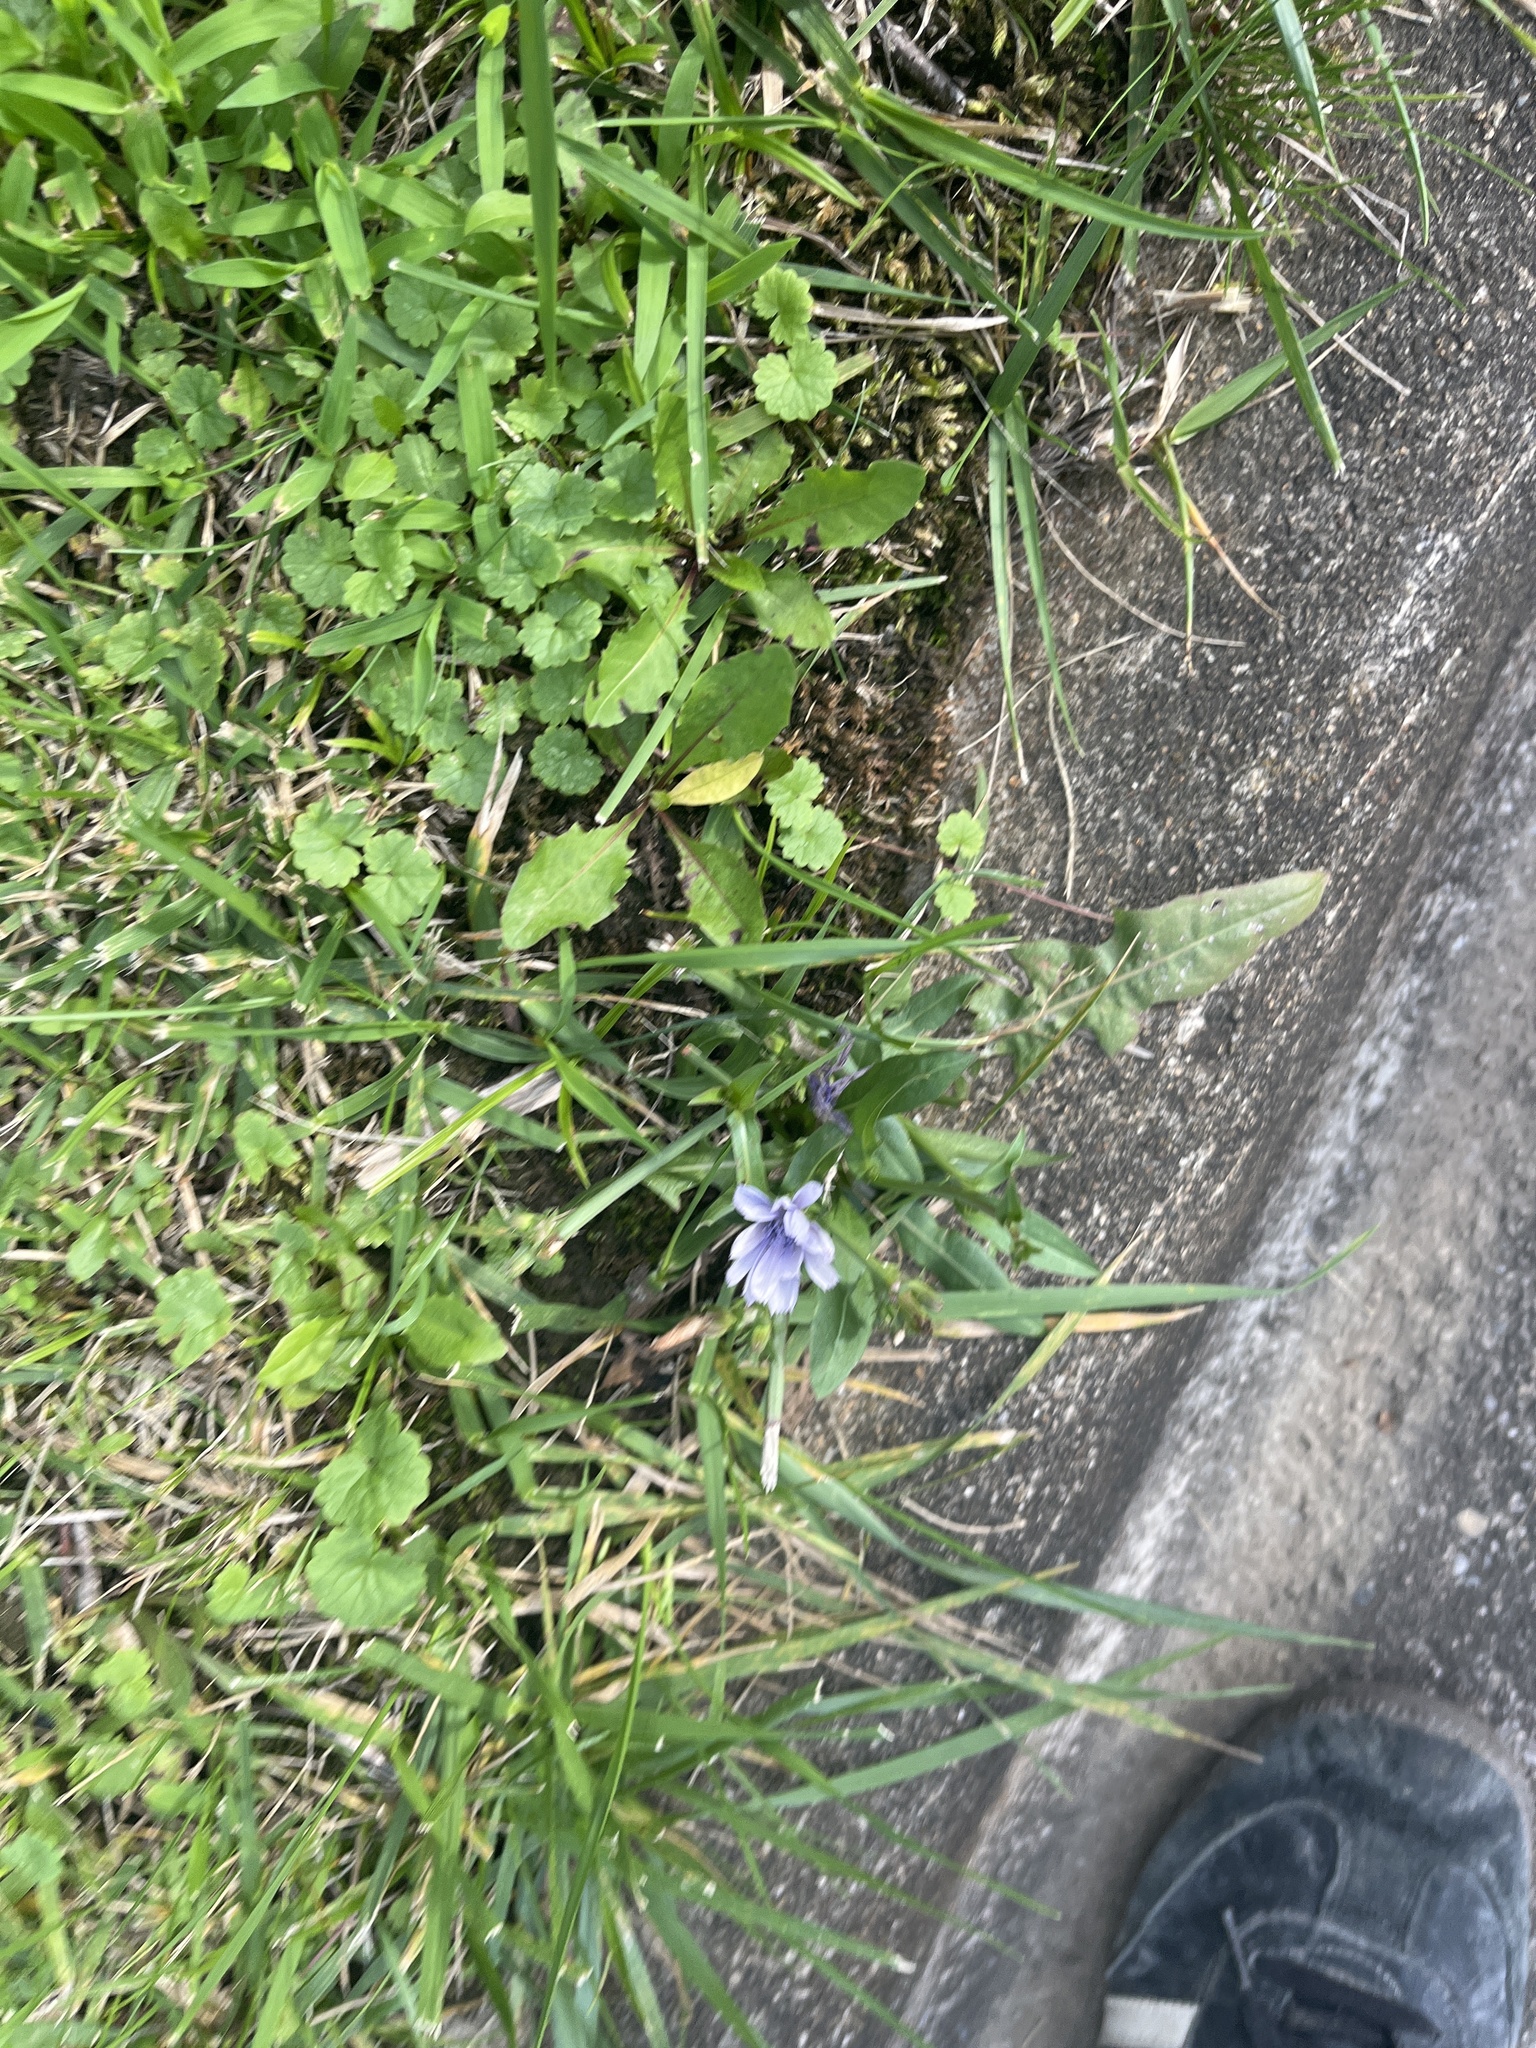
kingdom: Plantae
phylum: Tracheophyta
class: Magnoliopsida
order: Asterales
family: Asteraceae
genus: Cichorium
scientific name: Cichorium intybus
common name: Chicory
